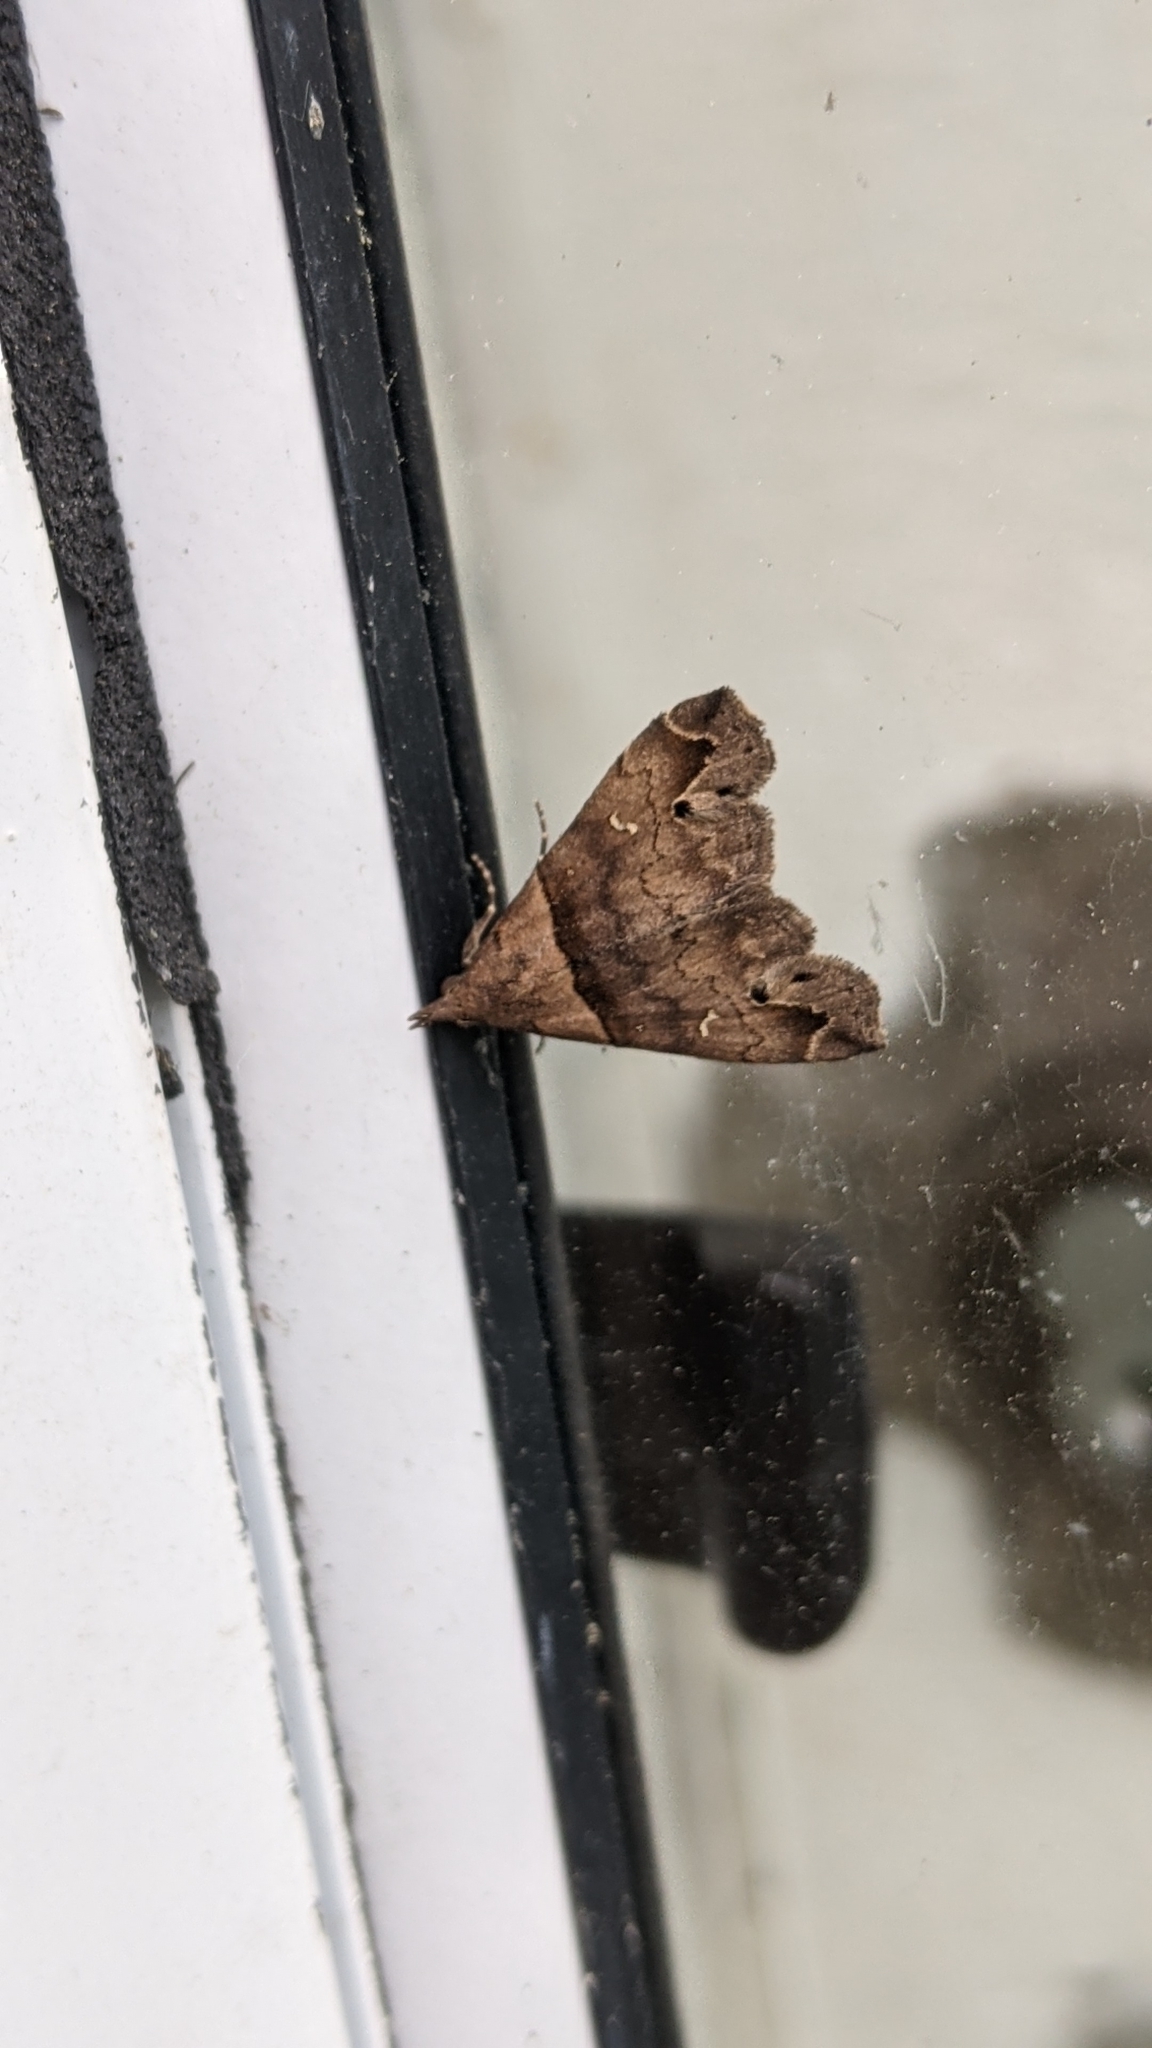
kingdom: Animalia
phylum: Arthropoda
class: Insecta
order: Lepidoptera
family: Erebidae
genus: Lascoria
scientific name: Lascoria ambigualis
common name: Ambiguous moth
